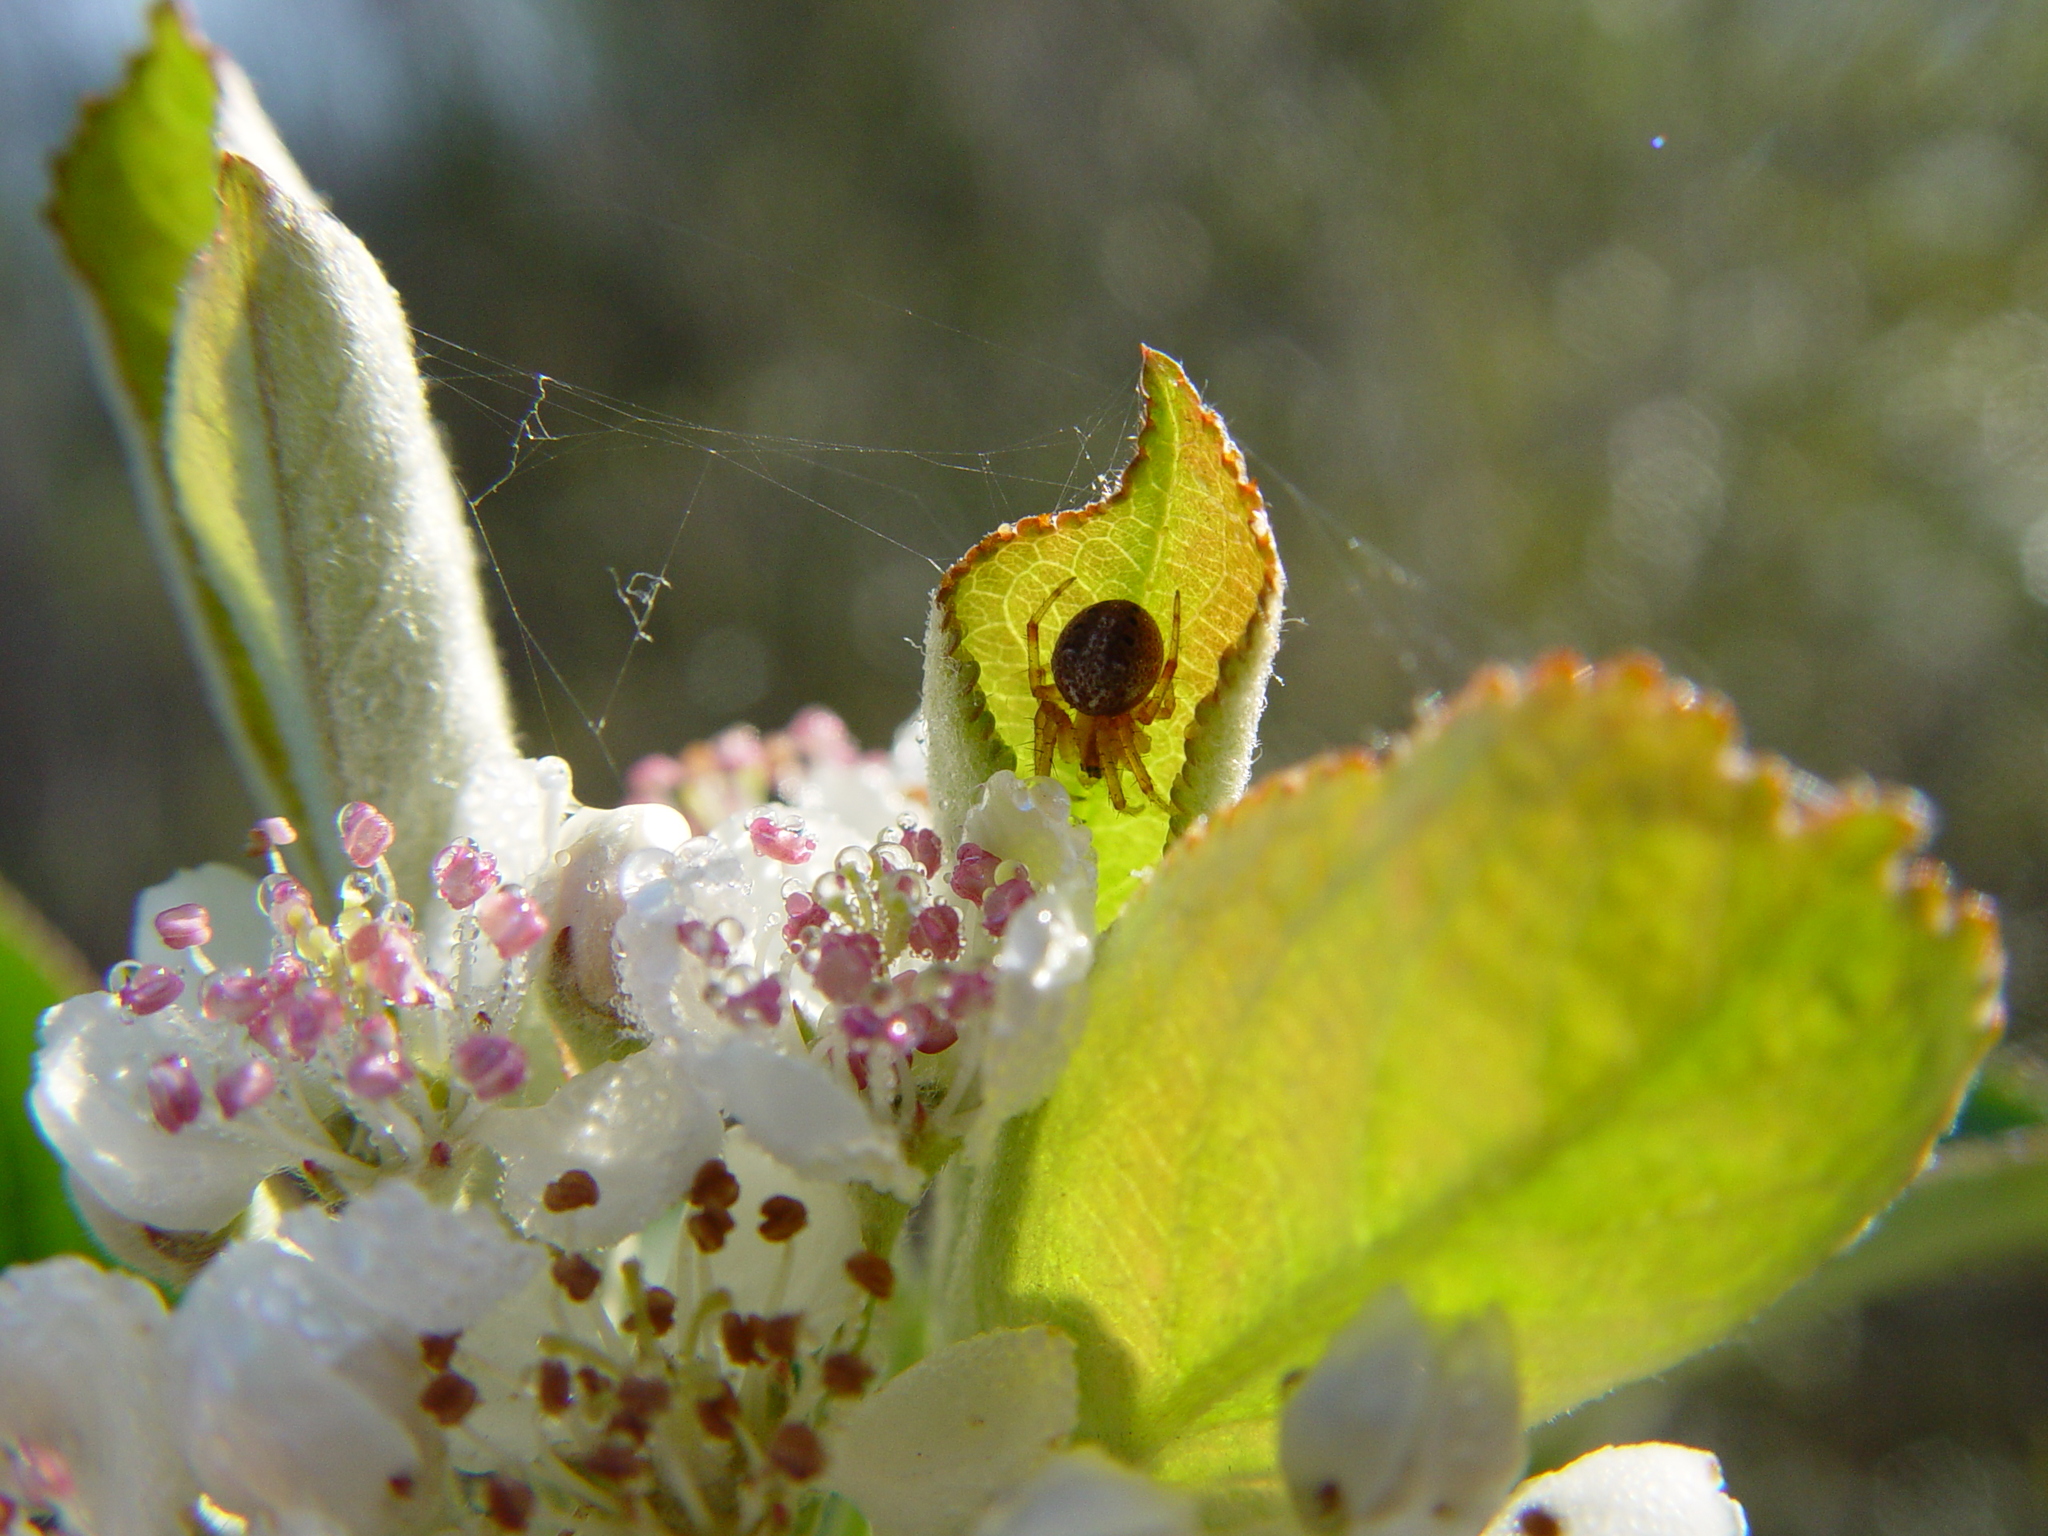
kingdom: Animalia
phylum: Arthropoda
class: Arachnida
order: Araneae
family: Araneidae
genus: Neoscona
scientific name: Neoscona arabesca
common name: Orb weavers
